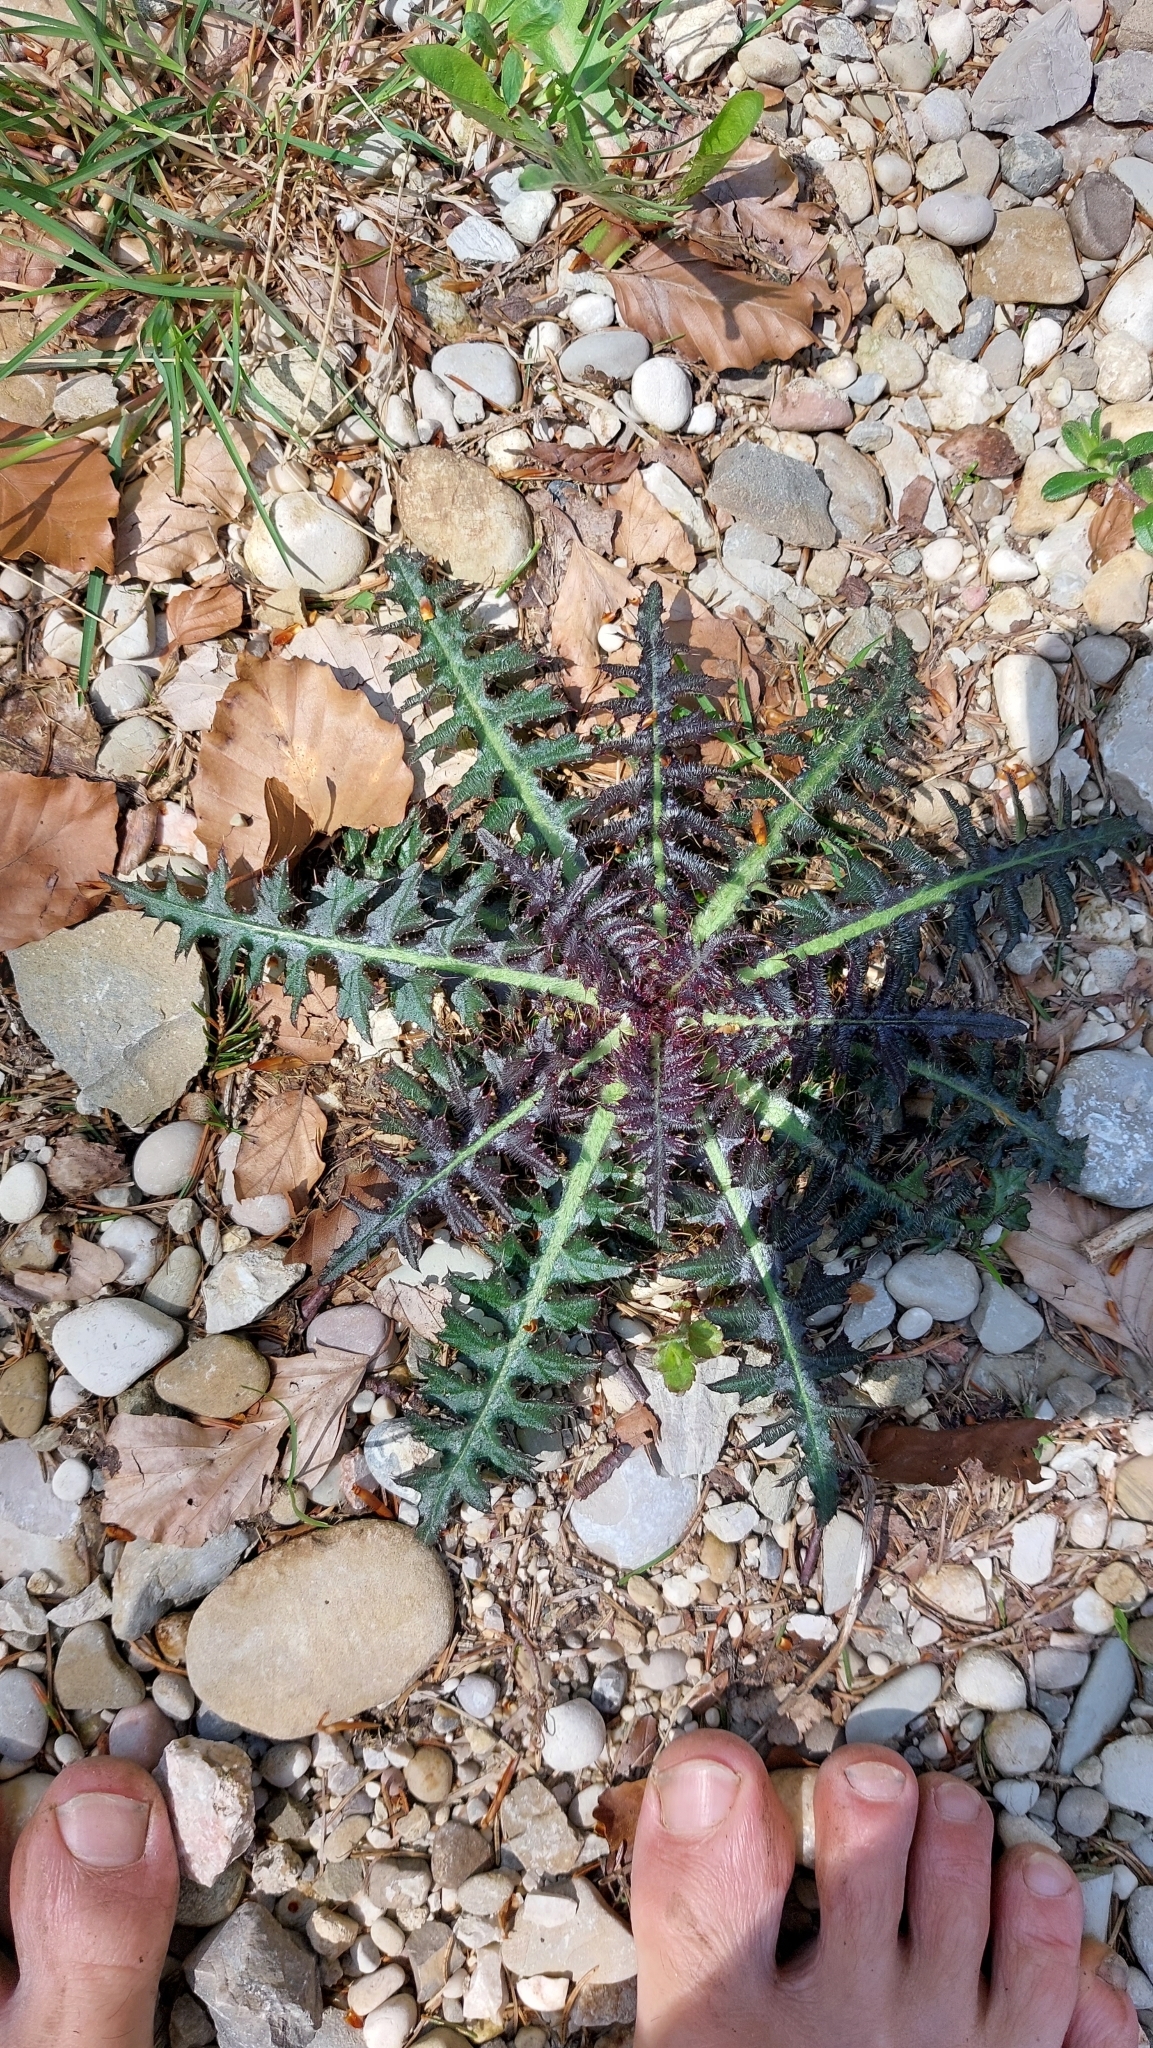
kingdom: Plantae
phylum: Tracheophyta
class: Magnoliopsida
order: Asterales
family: Asteraceae
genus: Cirsium
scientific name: Cirsium palustre
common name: Marsh thistle
